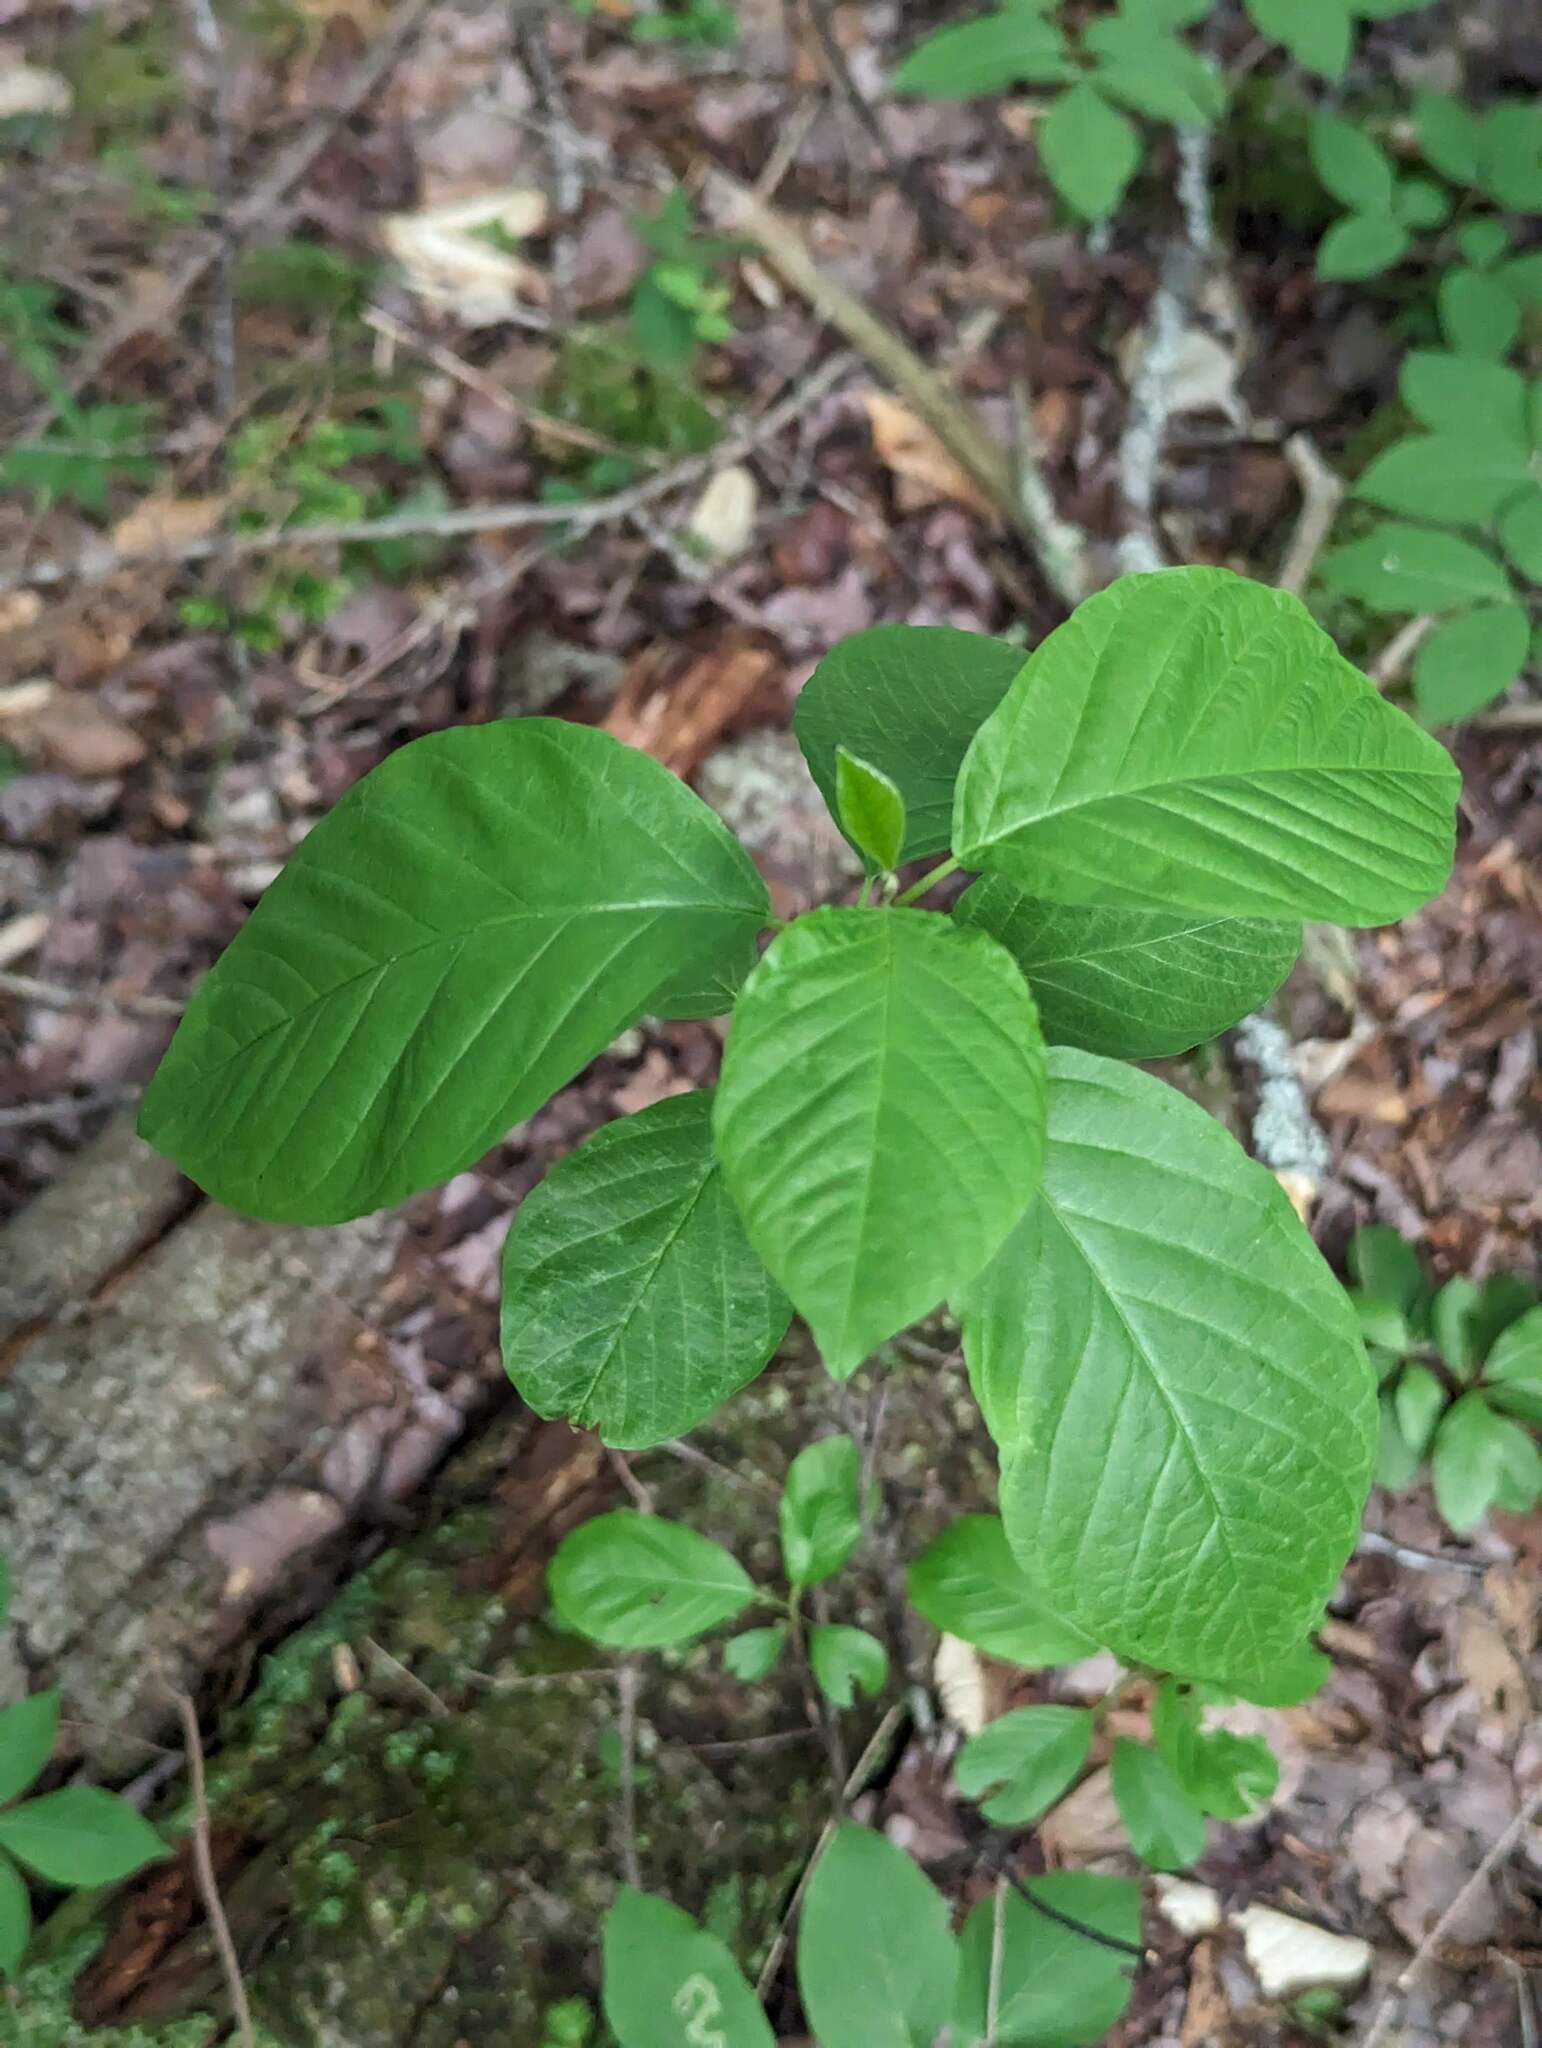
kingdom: Plantae
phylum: Tracheophyta
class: Magnoliopsida
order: Rosales
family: Rhamnaceae
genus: Frangula
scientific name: Frangula alnus
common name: Alder buckthorn
